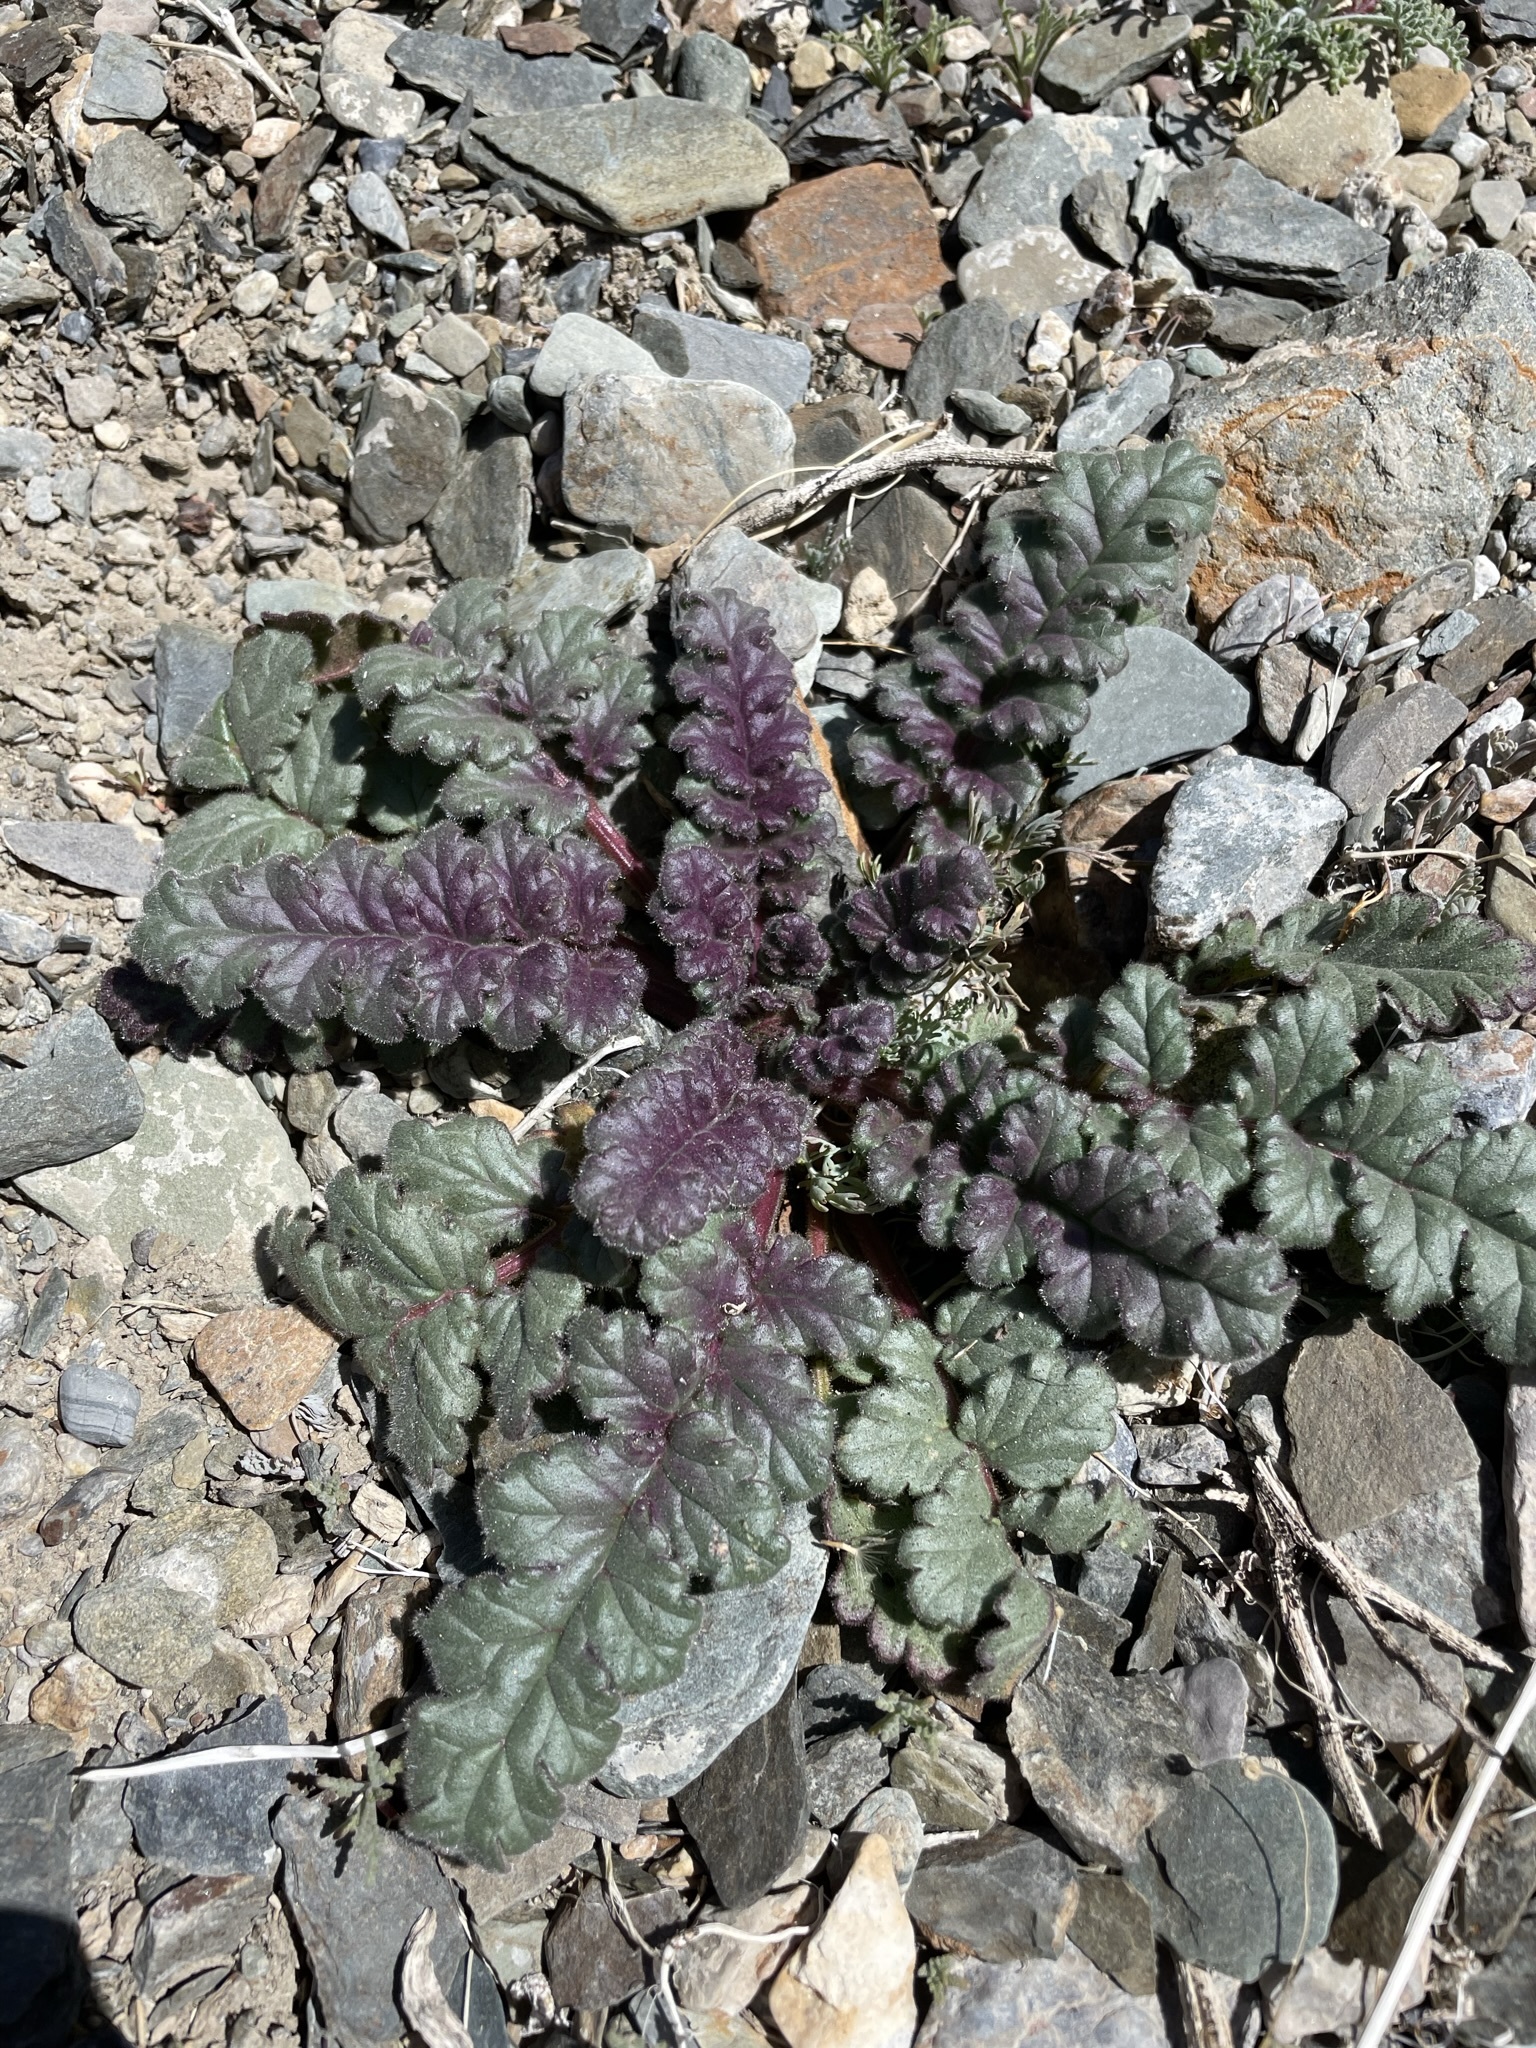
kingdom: Plantae
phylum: Tracheophyta
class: Magnoliopsida
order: Boraginales
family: Hydrophyllaceae
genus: Phacelia
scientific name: Phacelia crenulata
